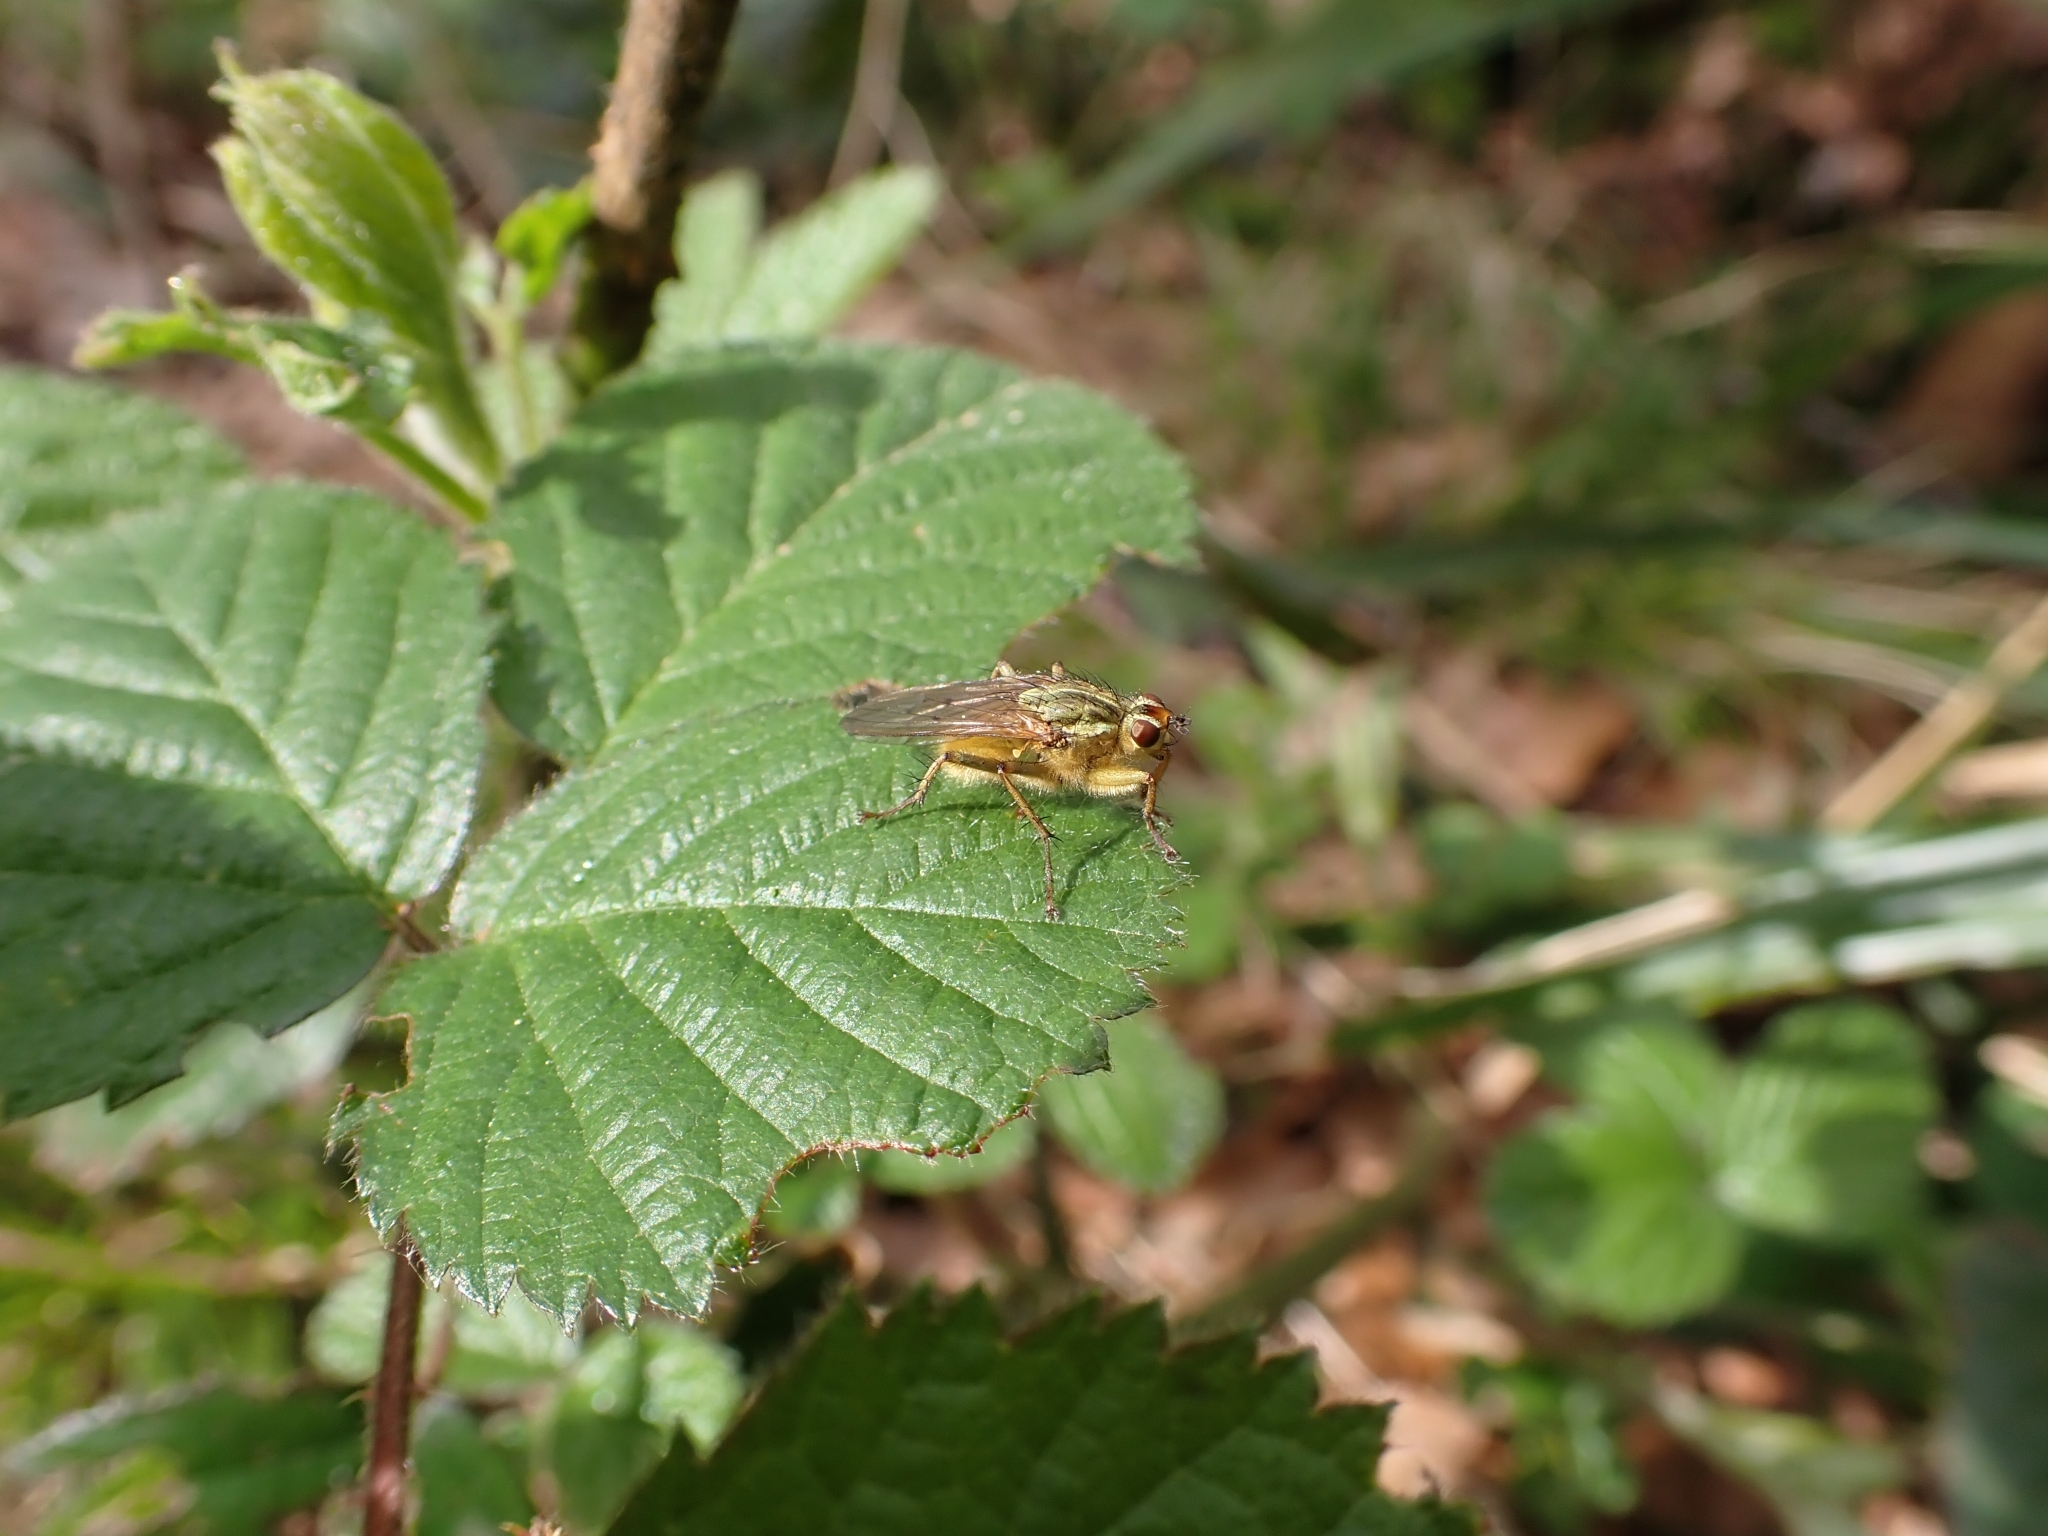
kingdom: Animalia
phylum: Arthropoda
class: Insecta
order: Diptera
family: Scathophagidae
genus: Scathophaga
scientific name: Scathophaga stercoraria
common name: Yellow dung fly
